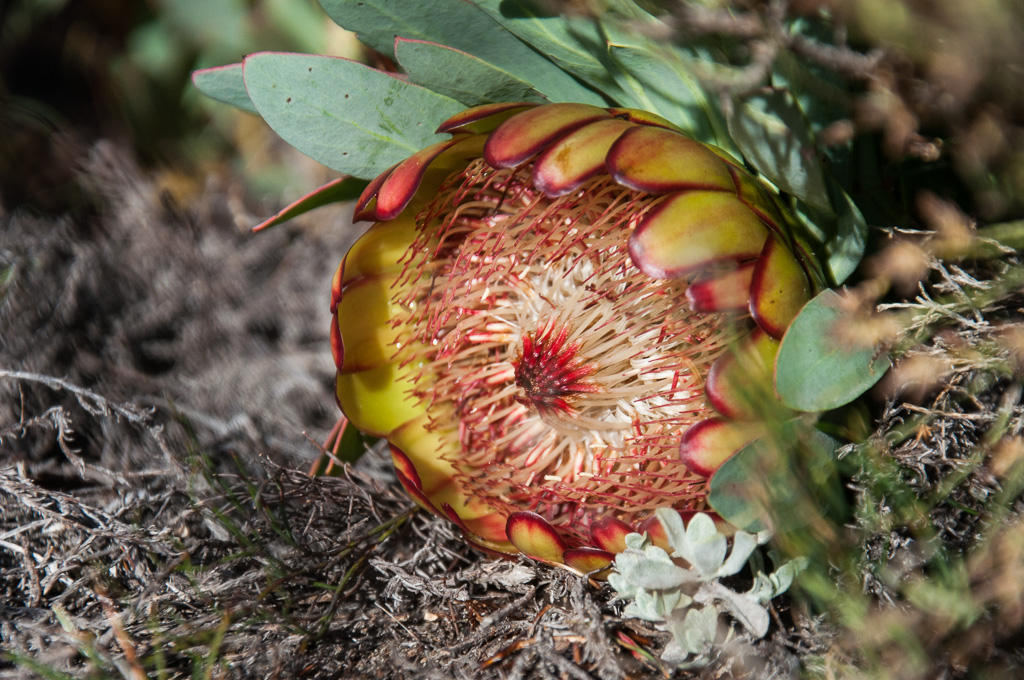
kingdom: Plantae
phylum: Tracheophyta
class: Magnoliopsida
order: Proteales
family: Proteaceae
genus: Protea
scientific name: Protea effusa
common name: Scarlet sugarbush
